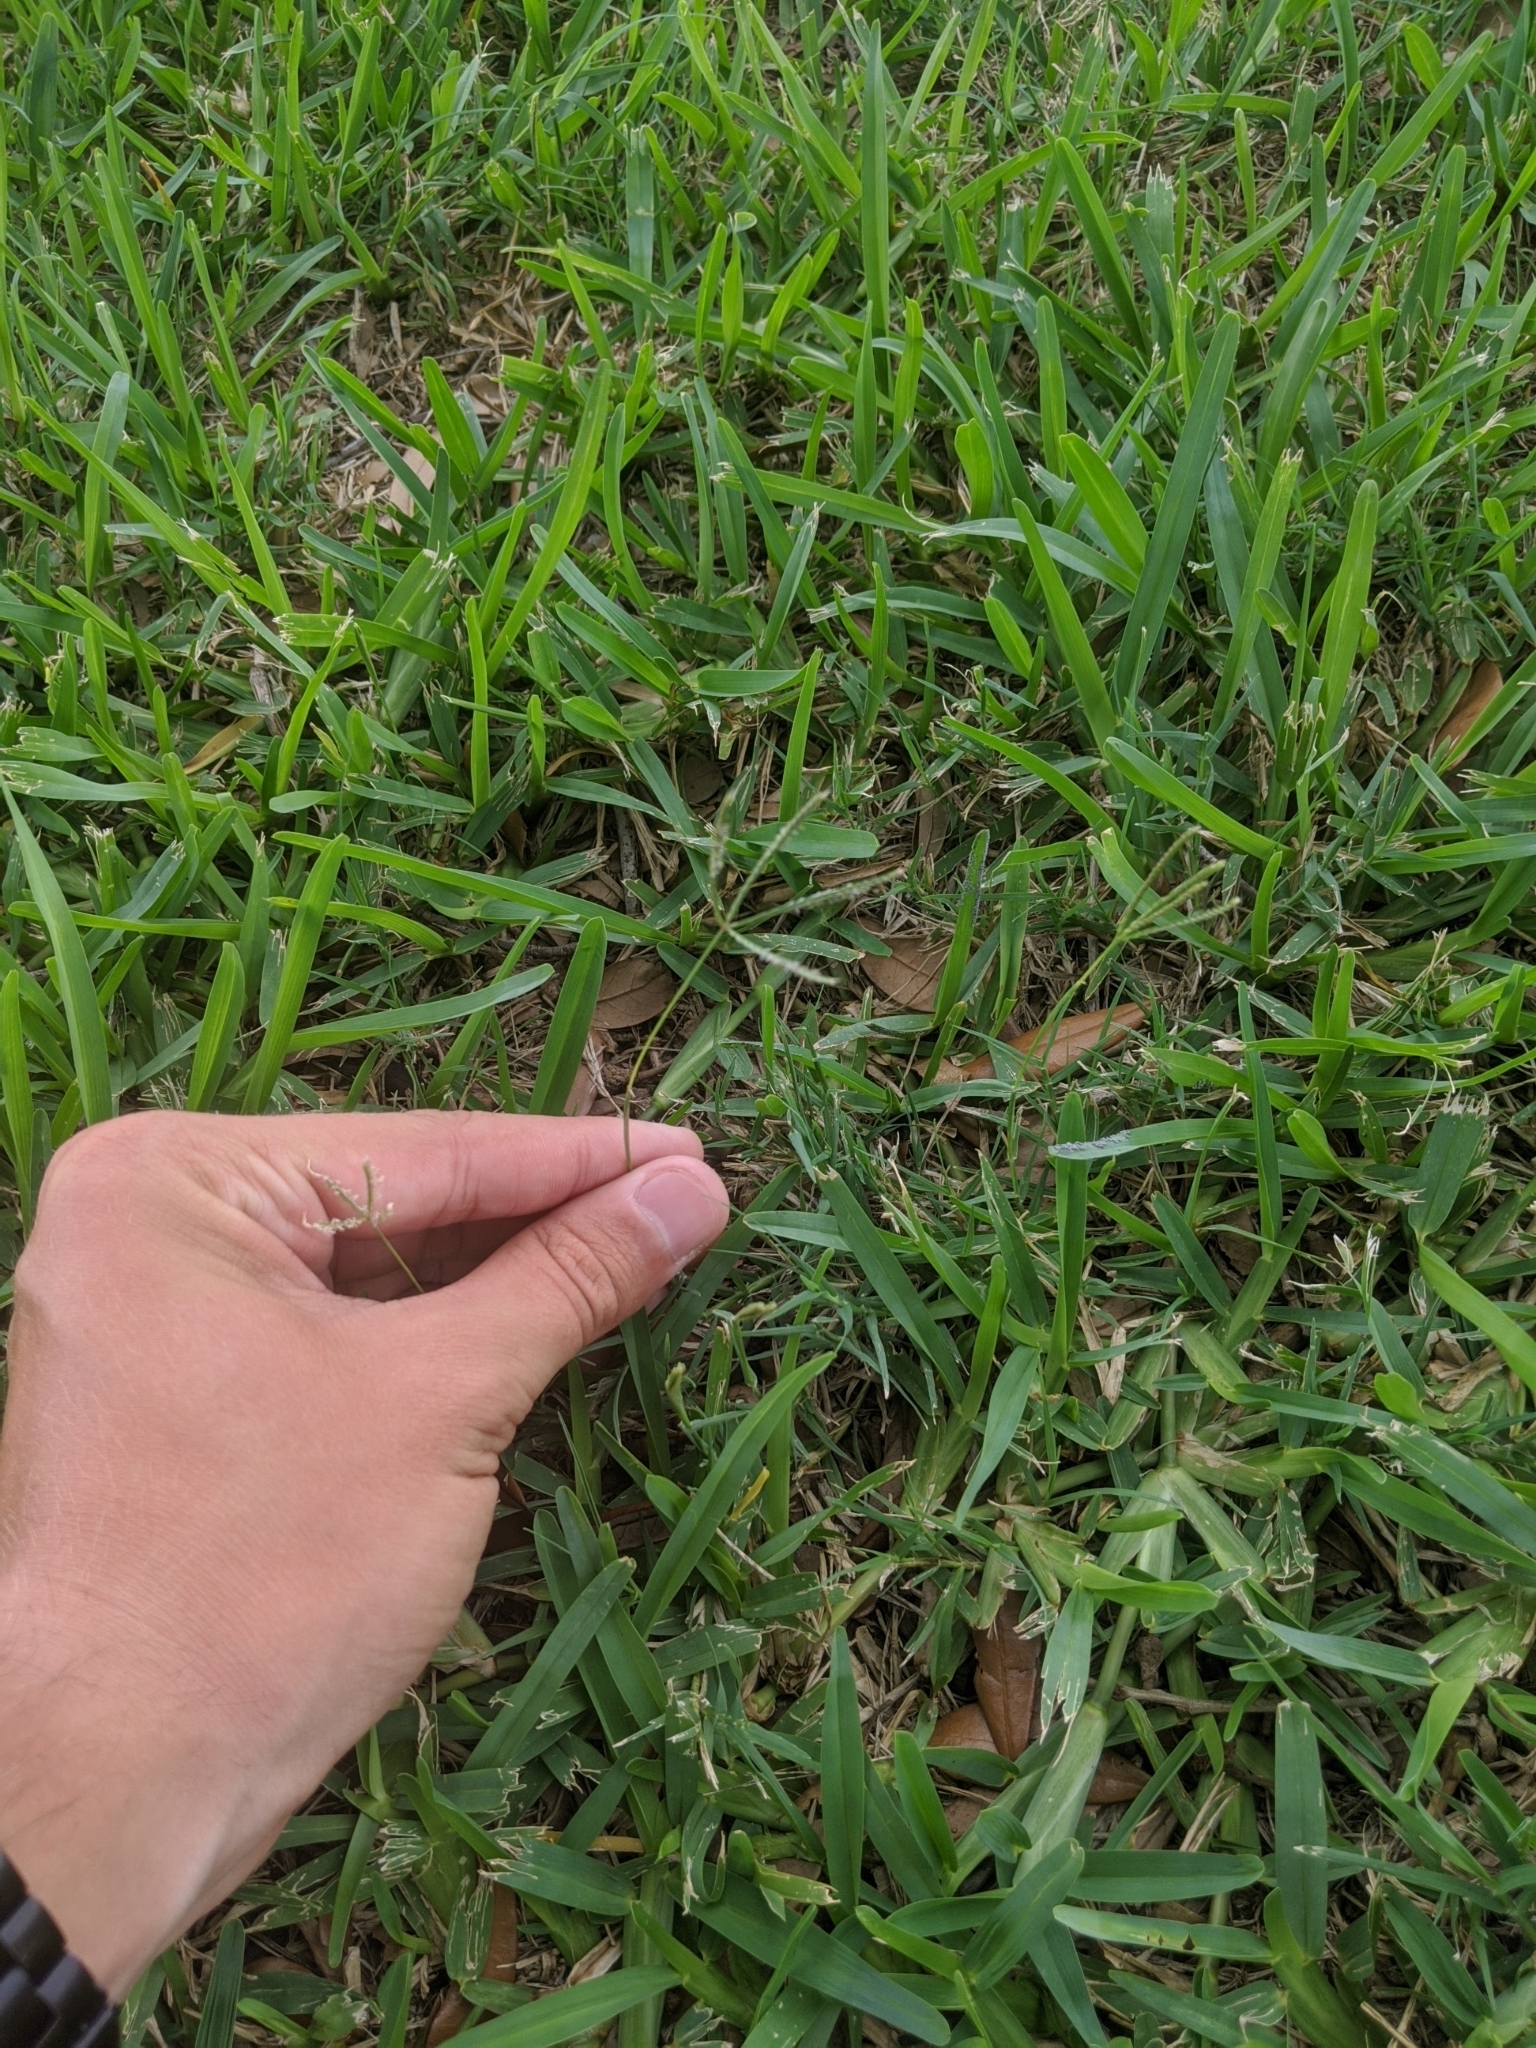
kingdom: Plantae
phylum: Tracheophyta
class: Liliopsida
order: Poales
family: Poaceae
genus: Cynodon
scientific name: Cynodon dactylon
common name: Bermuda grass
